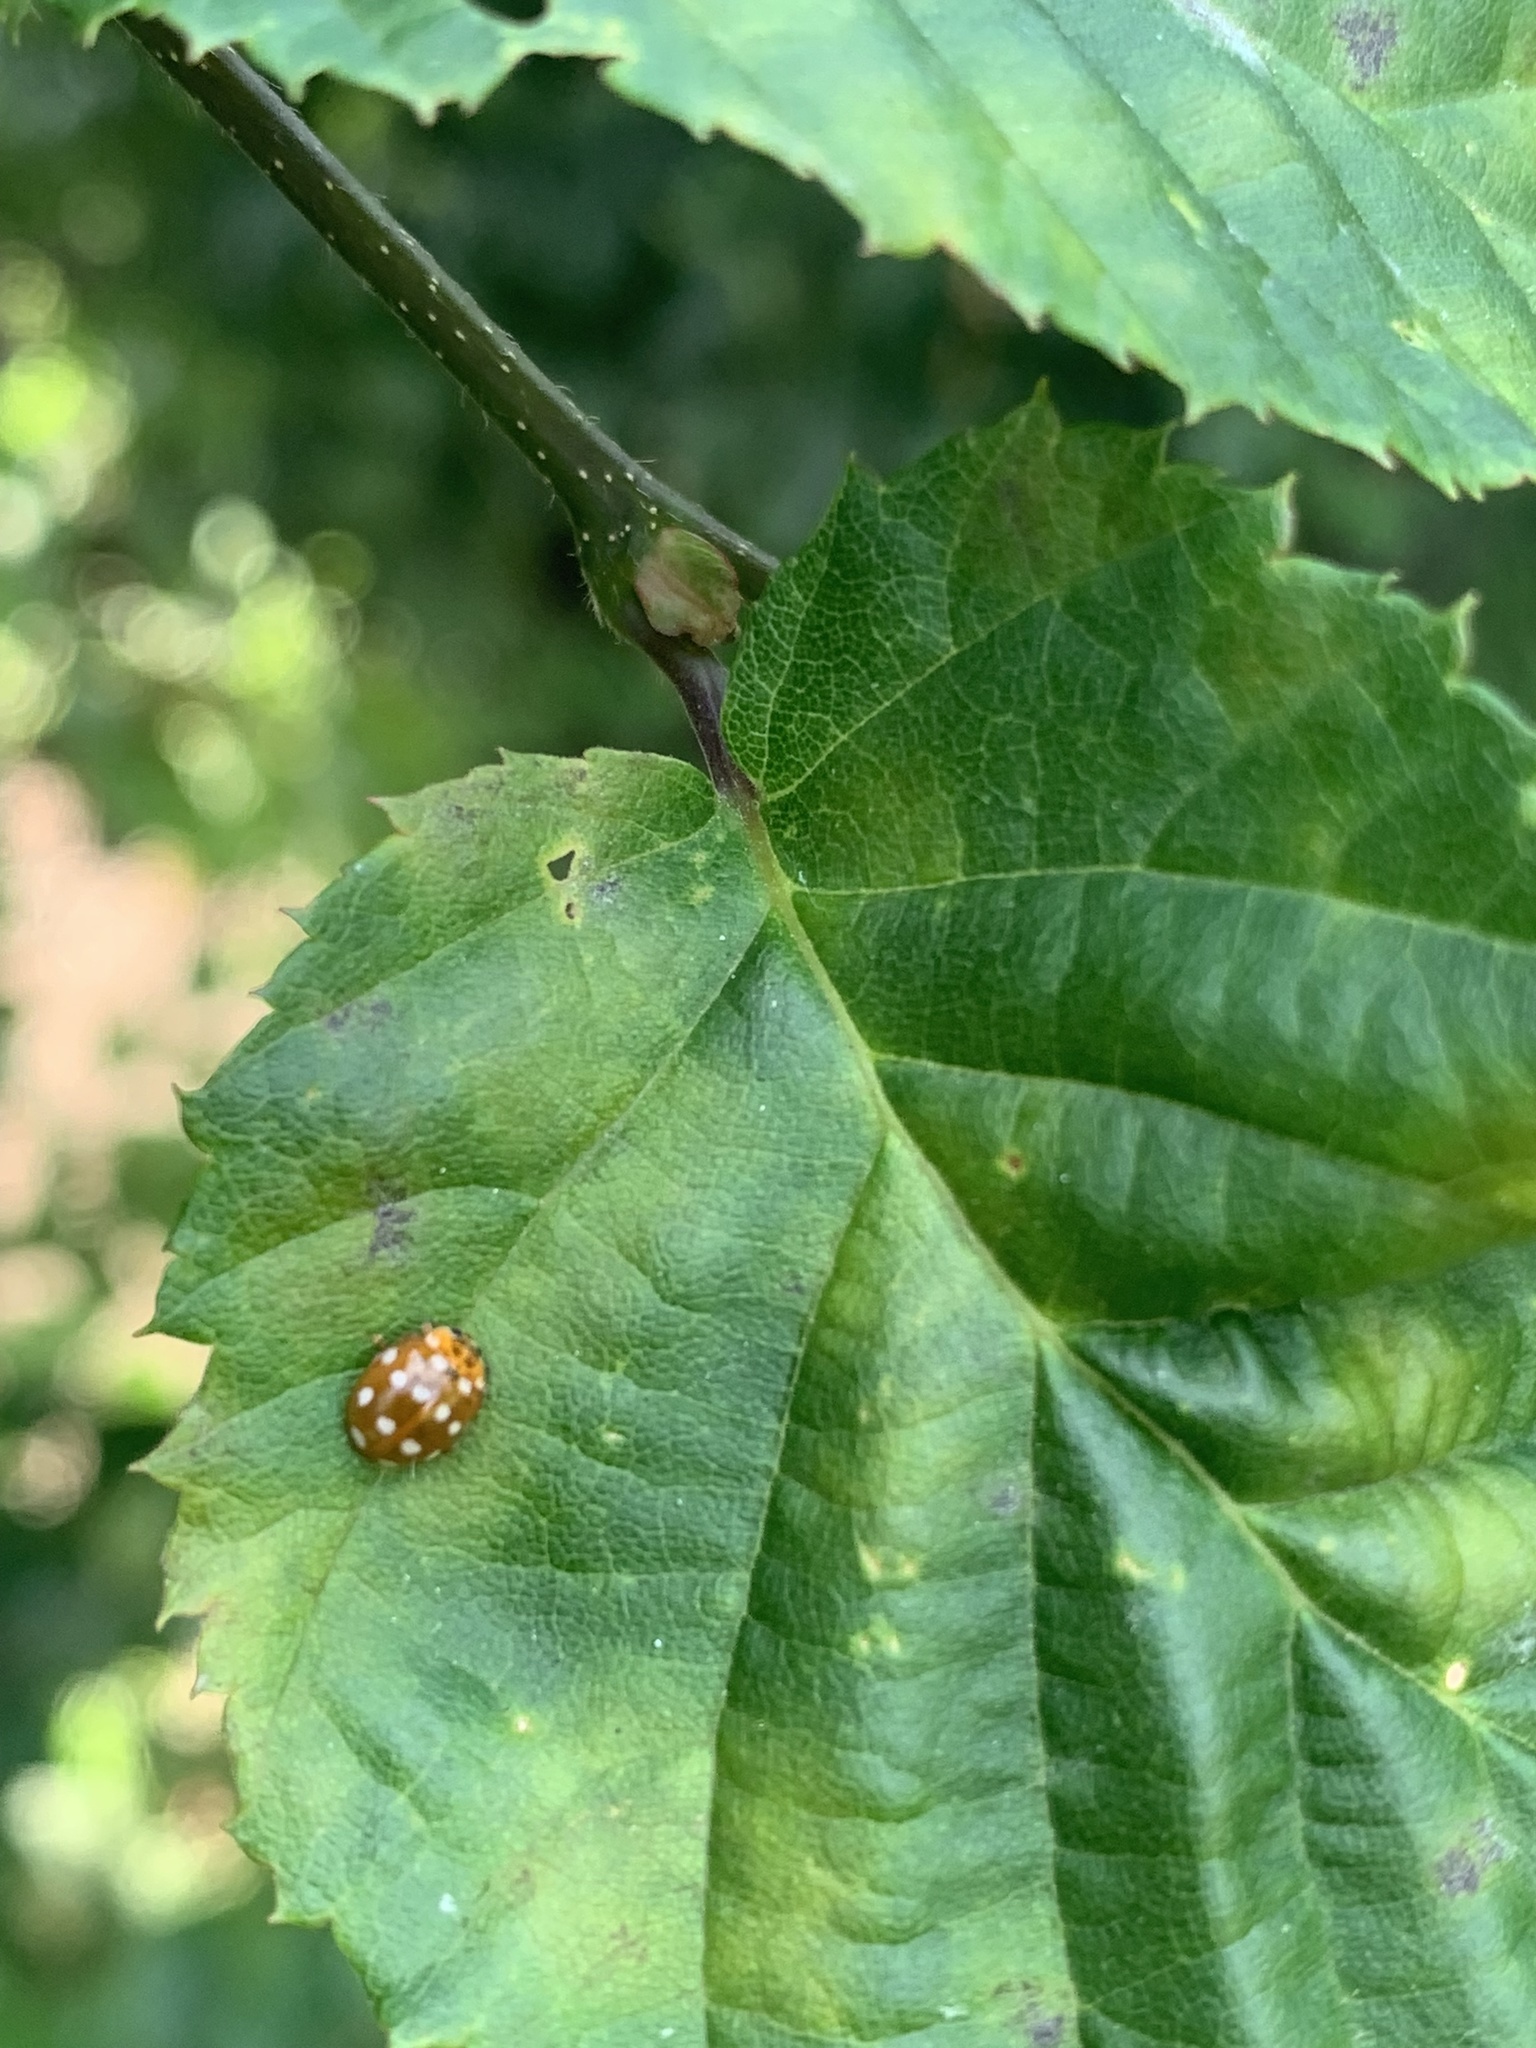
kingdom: Animalia
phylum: Arthropoda
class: Insecta
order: Coleoptera
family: Coccinellidae
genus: Calvia
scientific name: Calvia quatuordecimguttata
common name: Cream-spot ladybird
